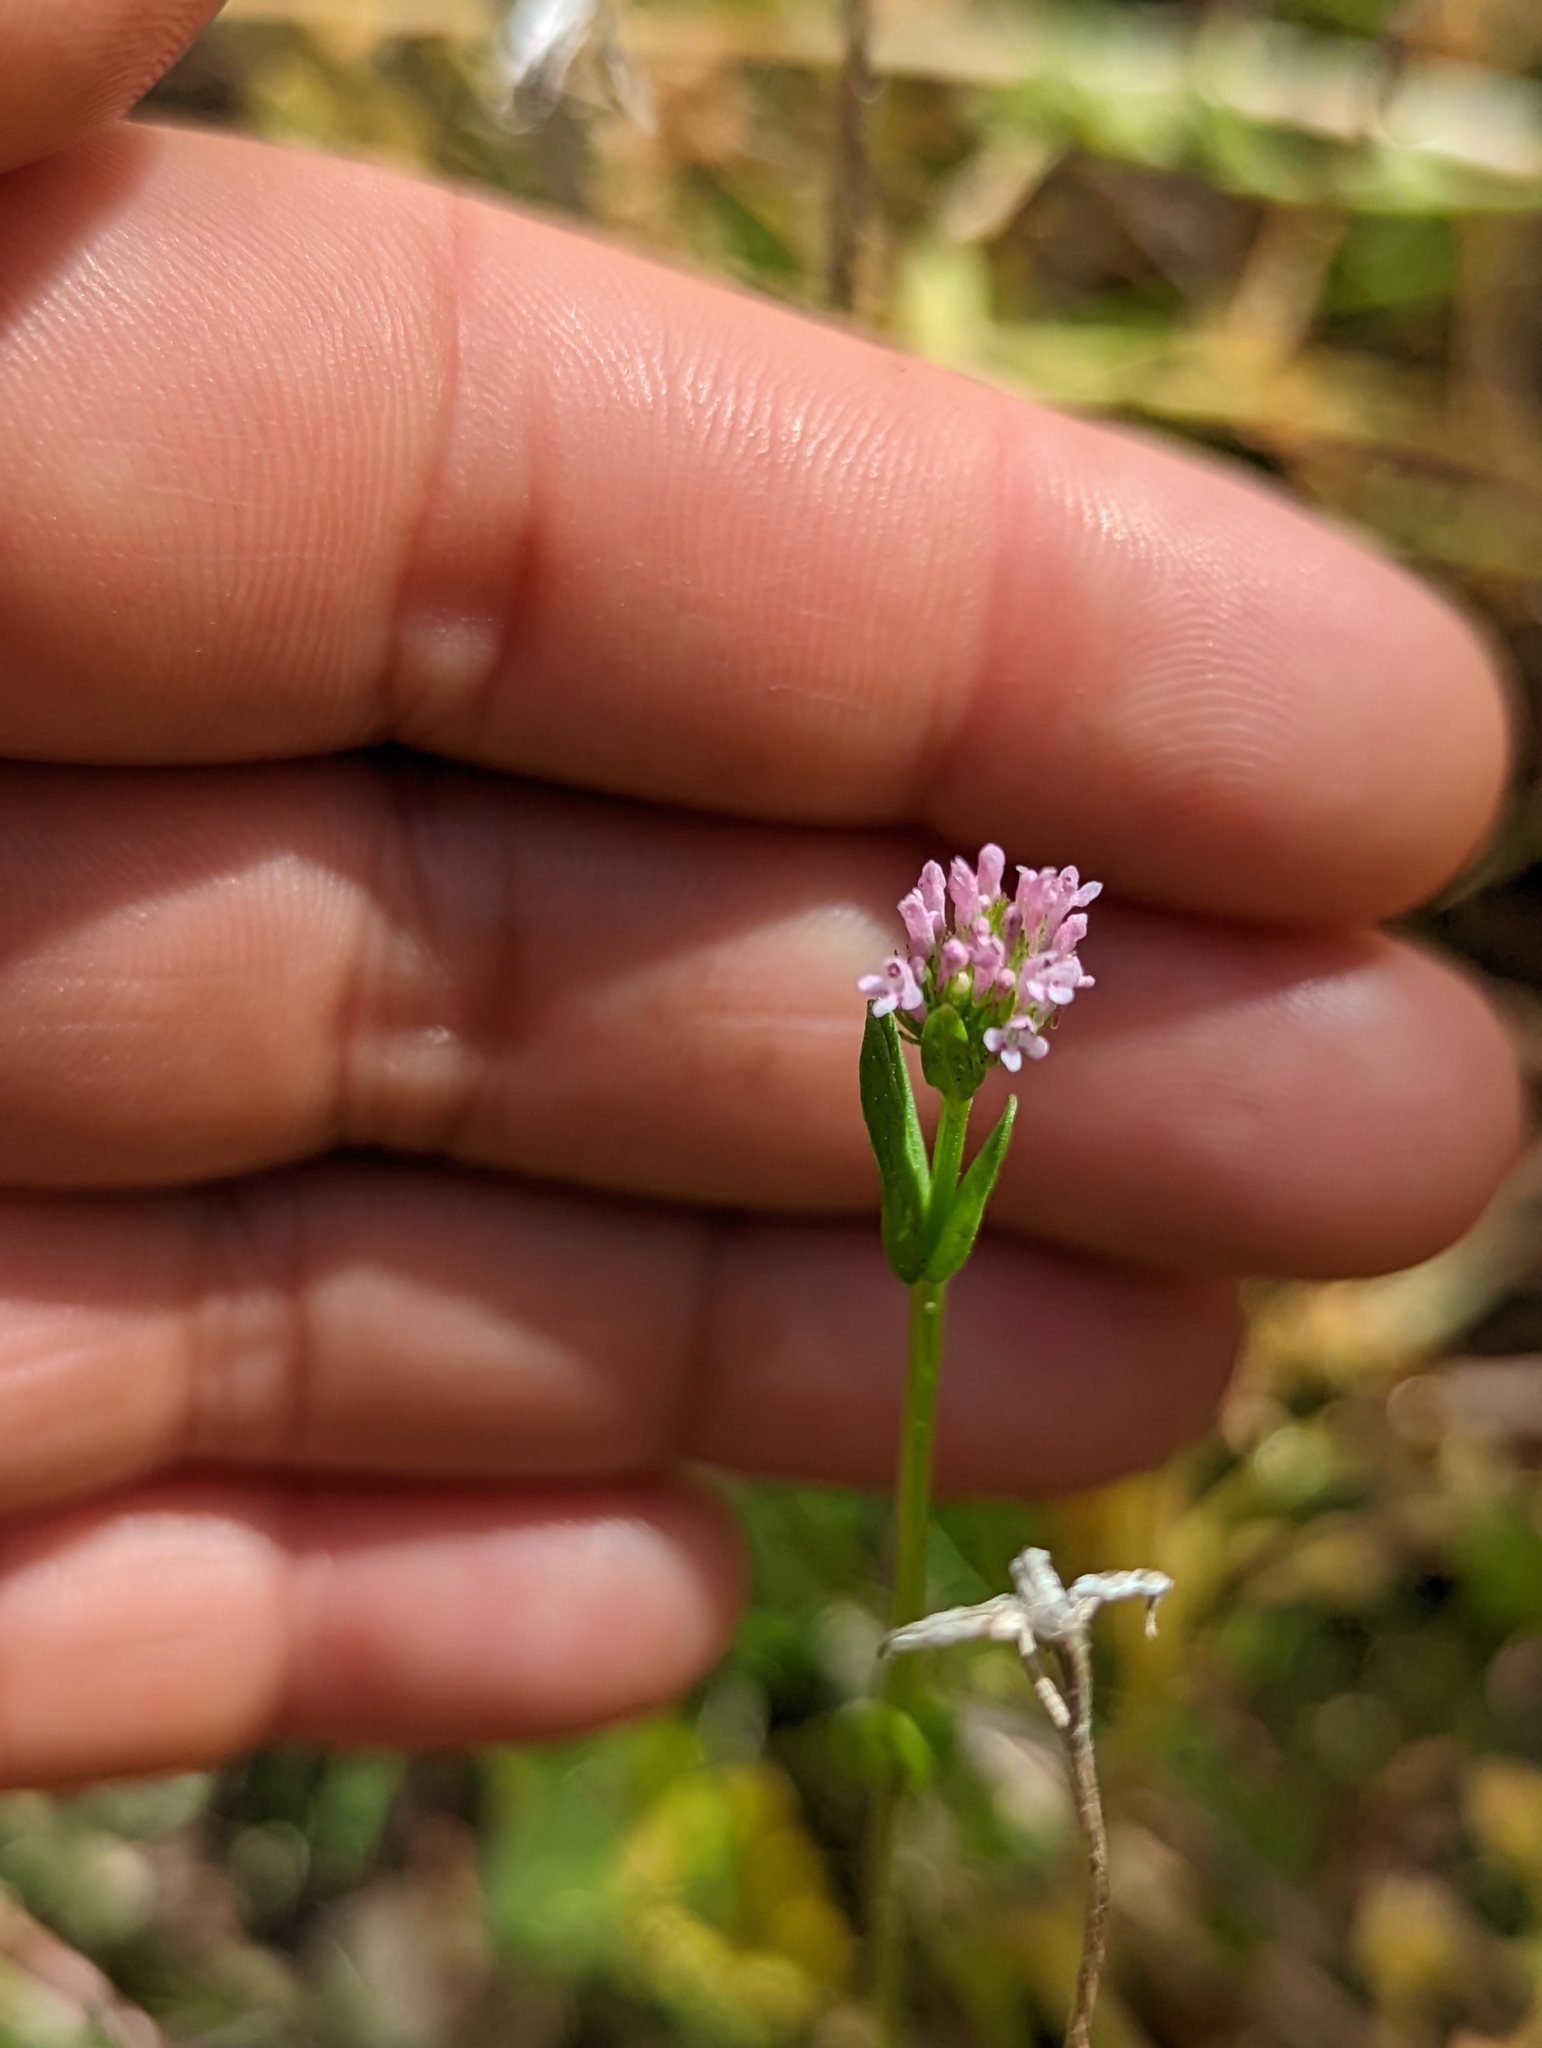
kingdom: Plantae
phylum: Tracheophyta
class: Magnoliopsida
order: Dipsacales
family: Caprifoliaceae
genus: Plectritis
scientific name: Plectritis ciliosa
